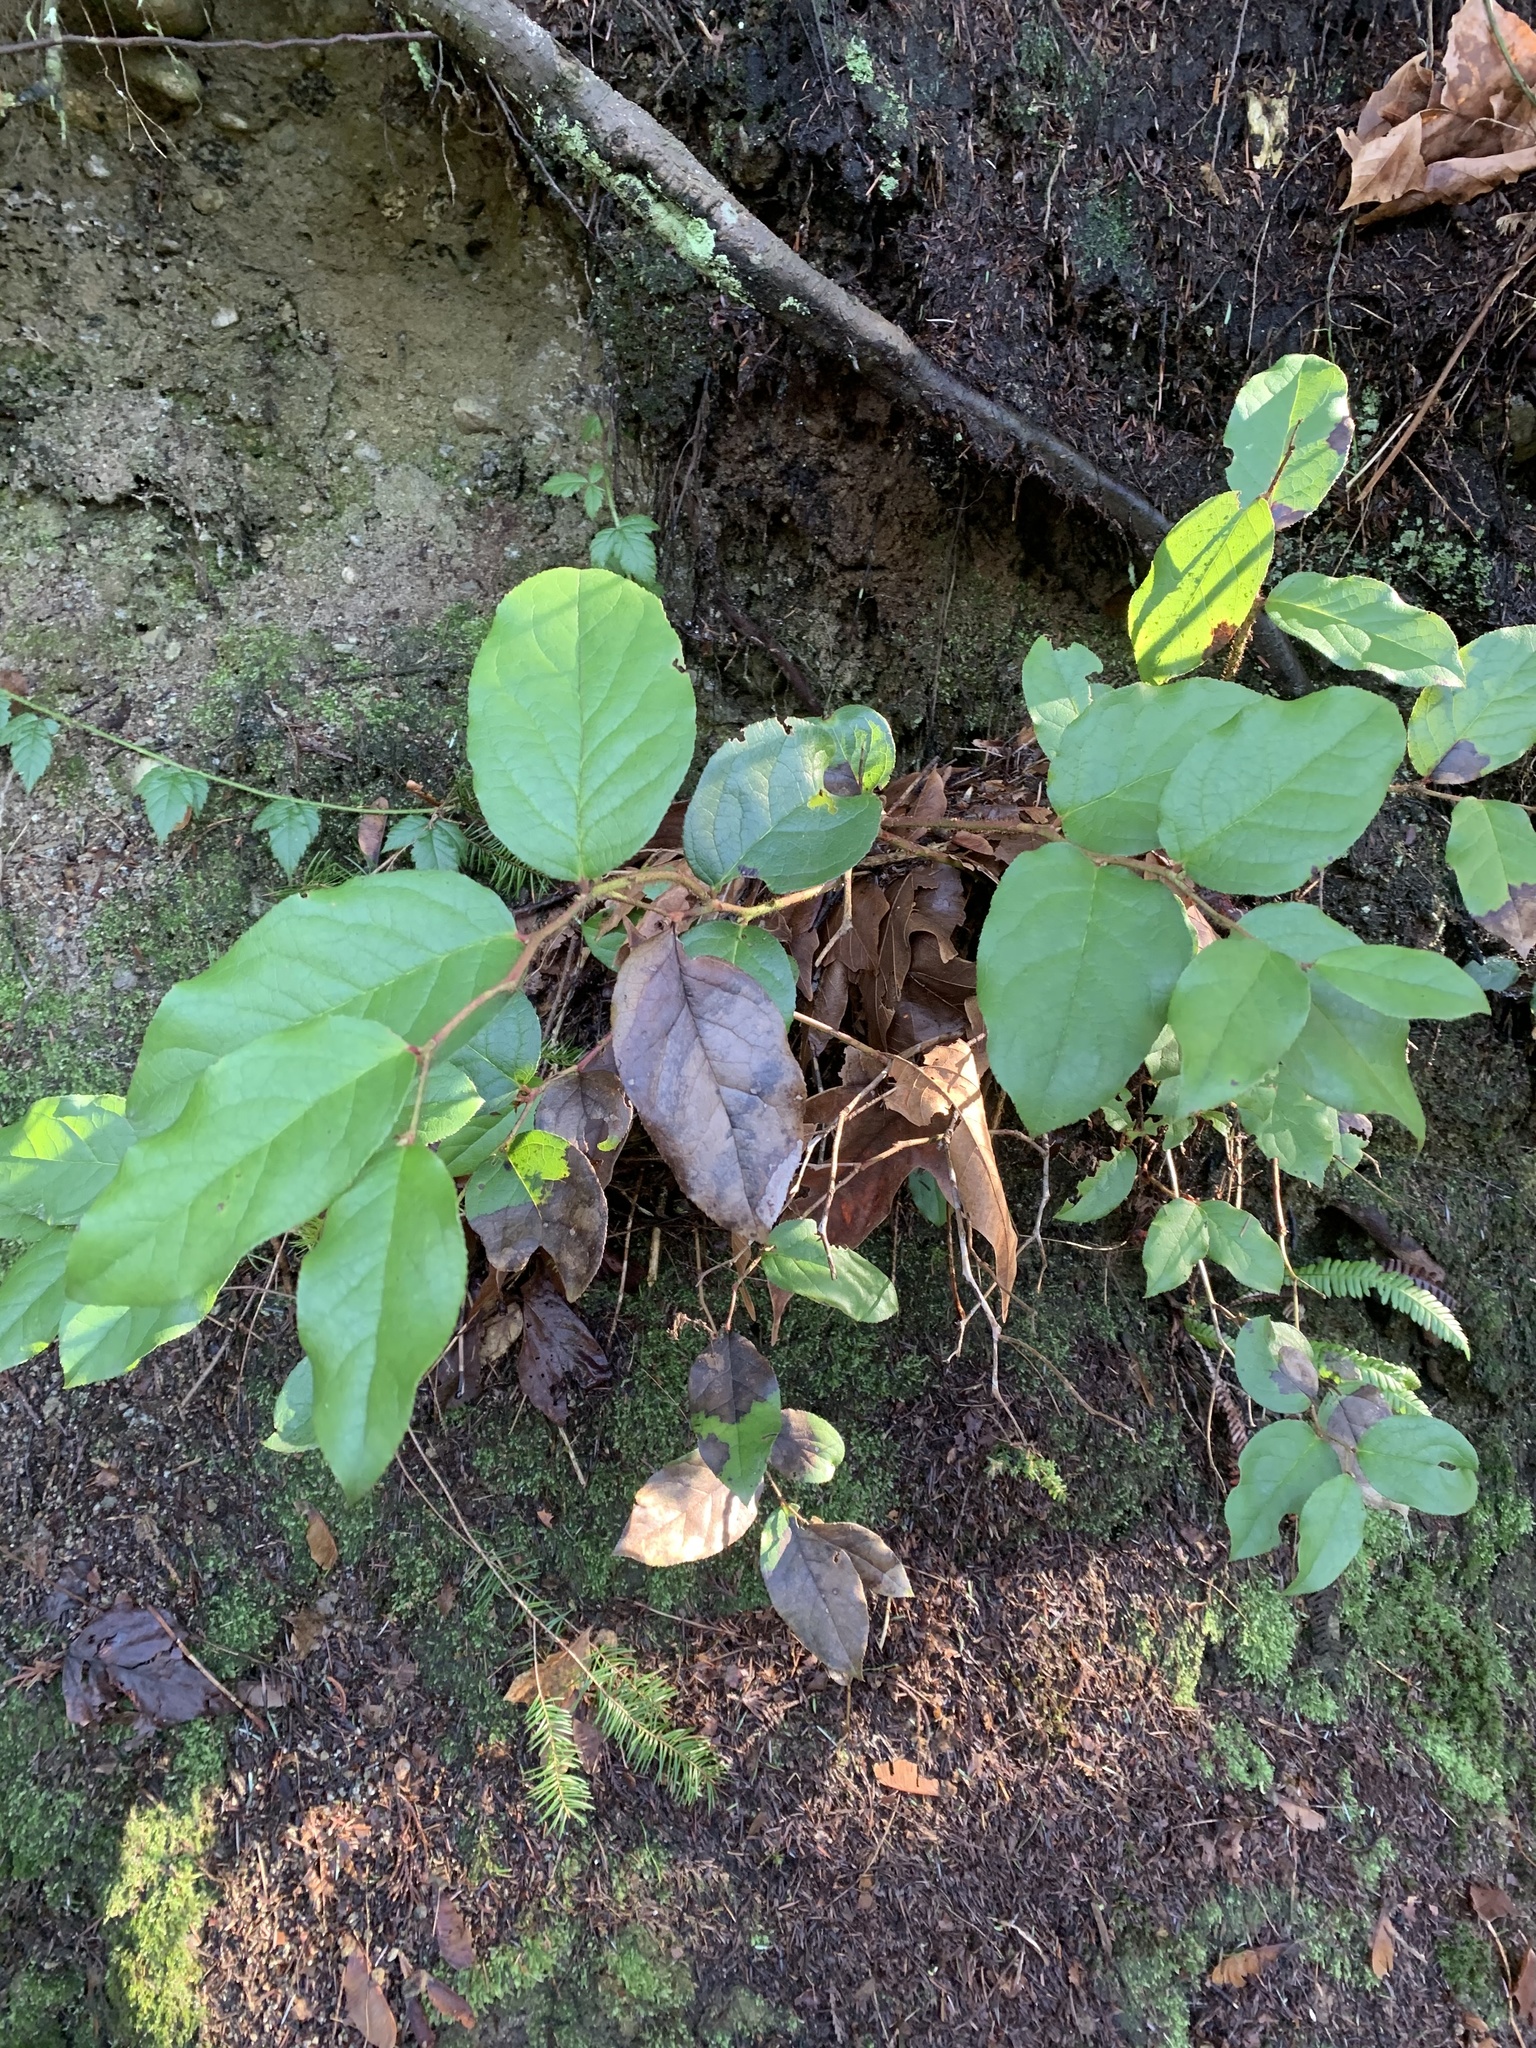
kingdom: Plantae
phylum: Tracheophyta
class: Magnoliopsida
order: Ericales
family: Ericaceae
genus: Gaultheria
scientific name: Gaultheria shallon
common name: Shallon
